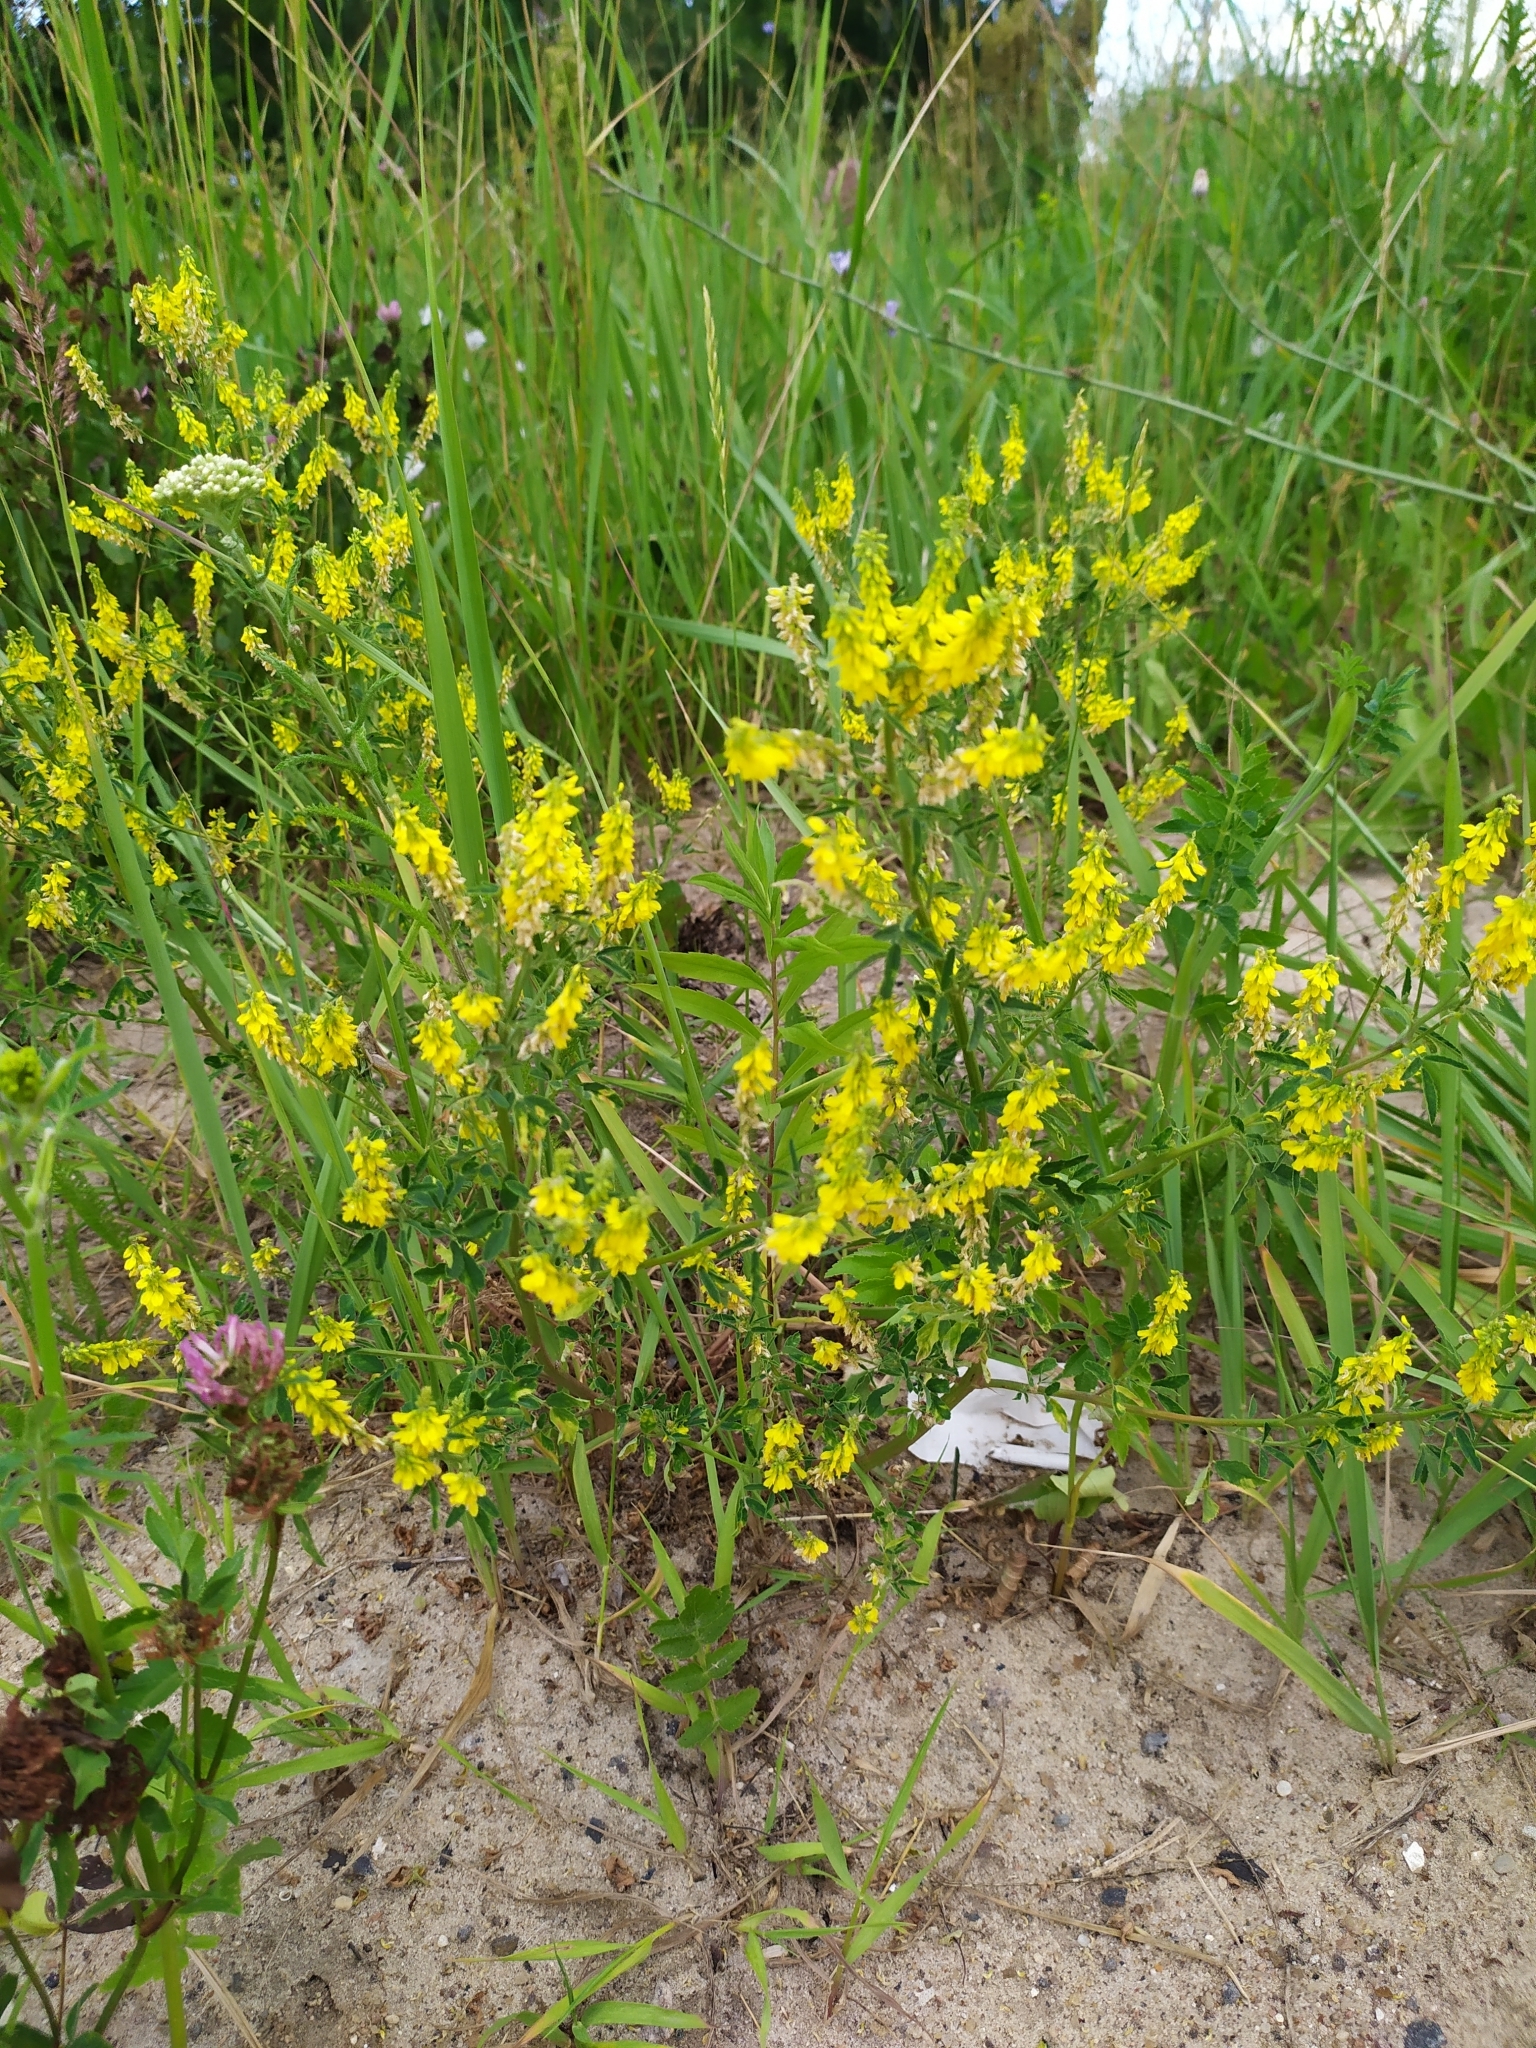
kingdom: Plantae
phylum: Tracheophyta
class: Magnoliopsida
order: Fabales
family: Fabaceae
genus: Melilotus
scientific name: Melilotus officinalis
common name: Sweetclover
